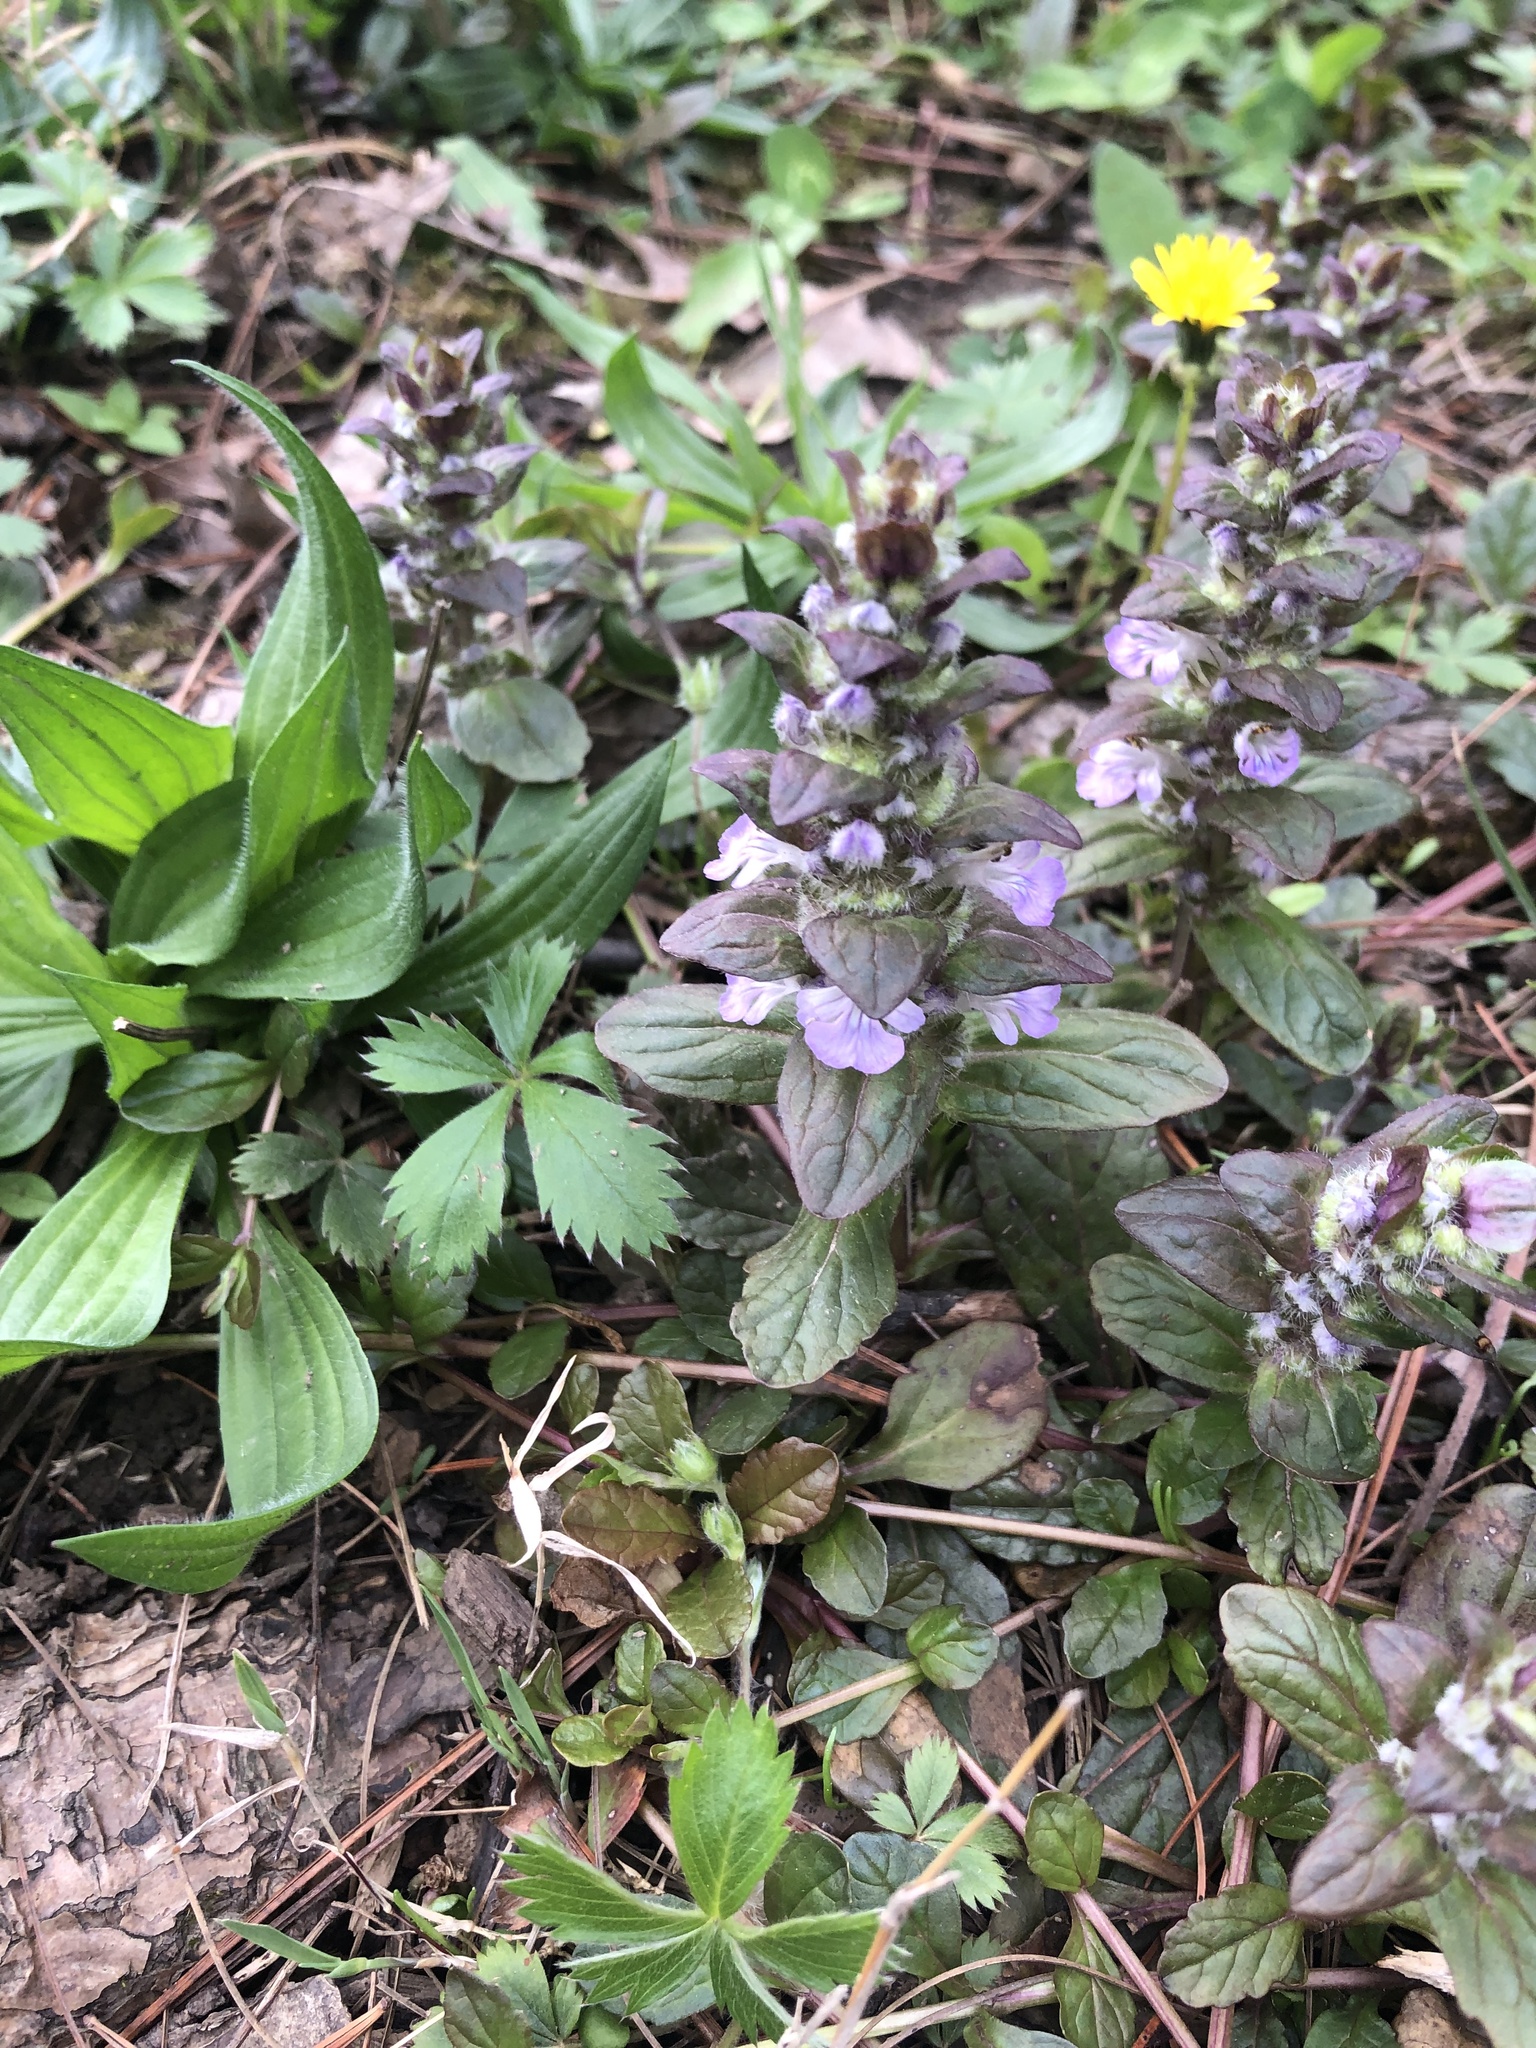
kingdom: Plantae
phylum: Tracheophyta
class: Magnoliopsida
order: Lamiales
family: Lamiaceae
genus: Ajuga
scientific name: Ajuga reptans
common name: Bugle
